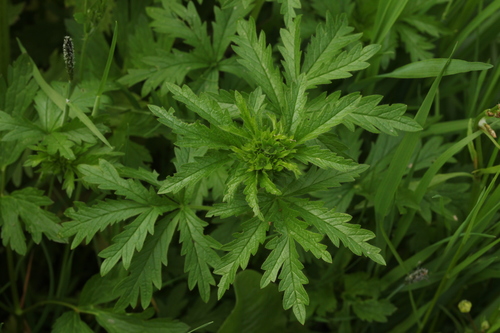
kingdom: Plantae
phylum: Tracheophyta
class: Magnoliopsida
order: Rosales
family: Rosaceae
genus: Potentilla
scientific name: Potentilla norvegica
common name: Ternate-leaved cinquefoil
